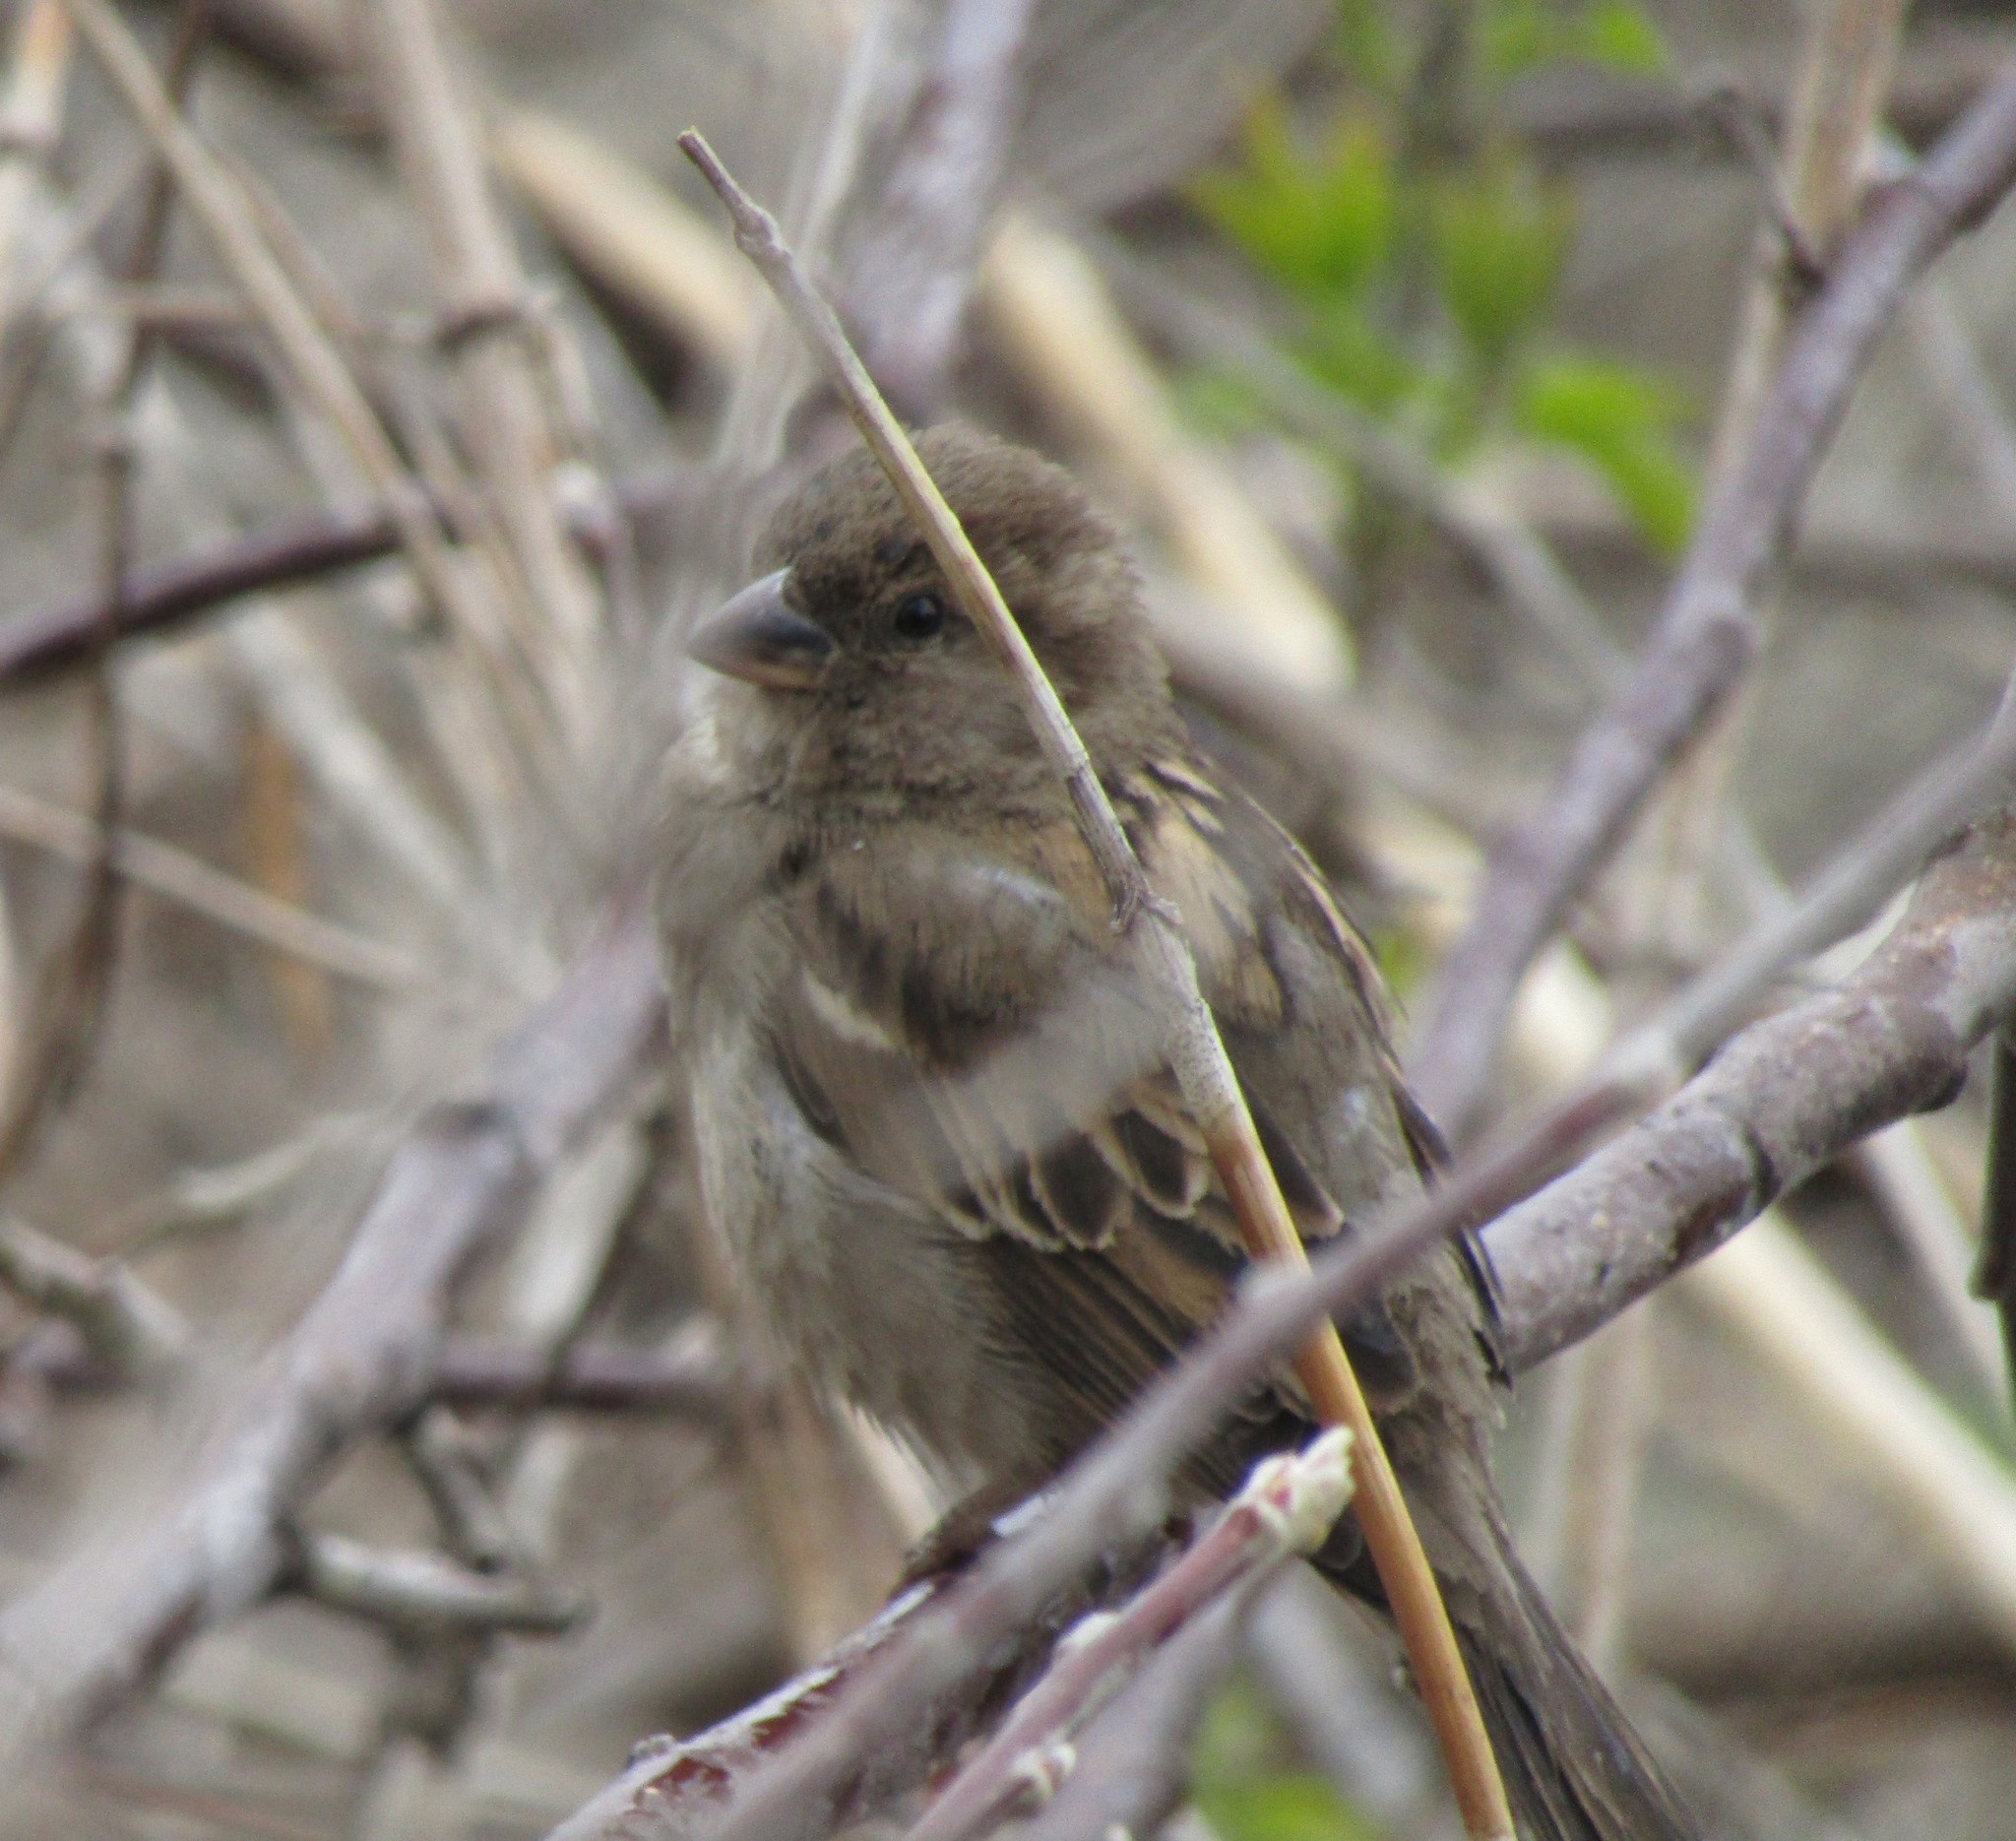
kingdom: Animalia
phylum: Chordata
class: Aves
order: Passeriformes
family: Passeridae
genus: Passer
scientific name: Passer domesticus
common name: House sparrow
